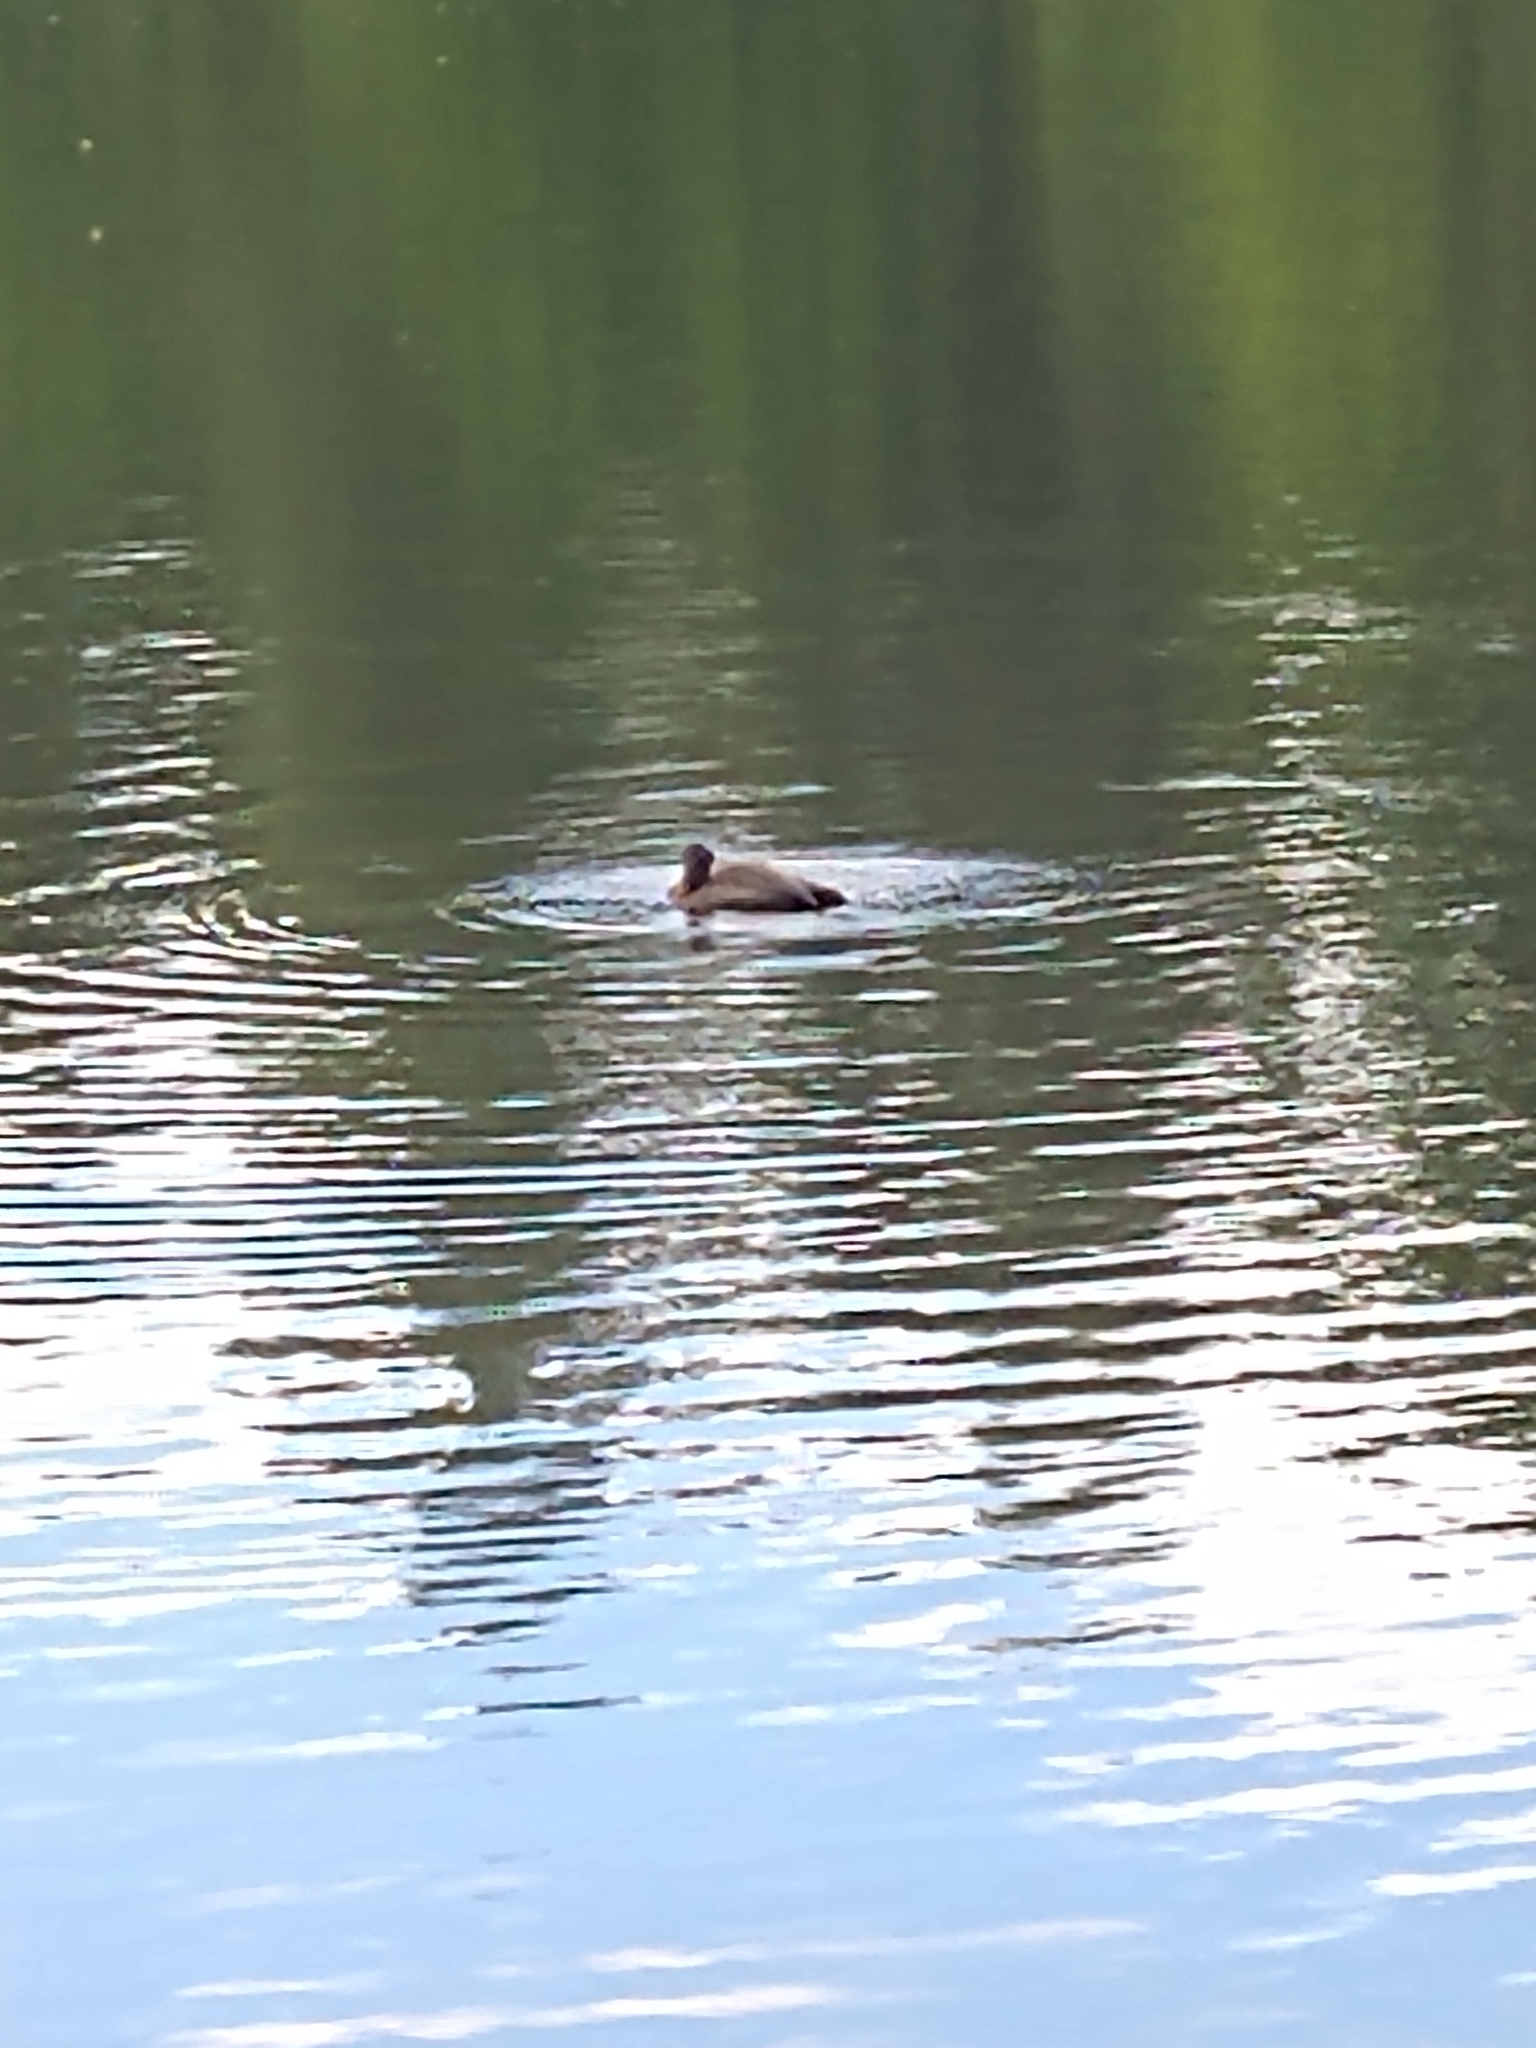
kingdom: Animalia
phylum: Chordata
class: Aves
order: Anseriformes
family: Anatidae
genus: Aythya
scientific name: Aythya fuligula
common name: Tufted duck
